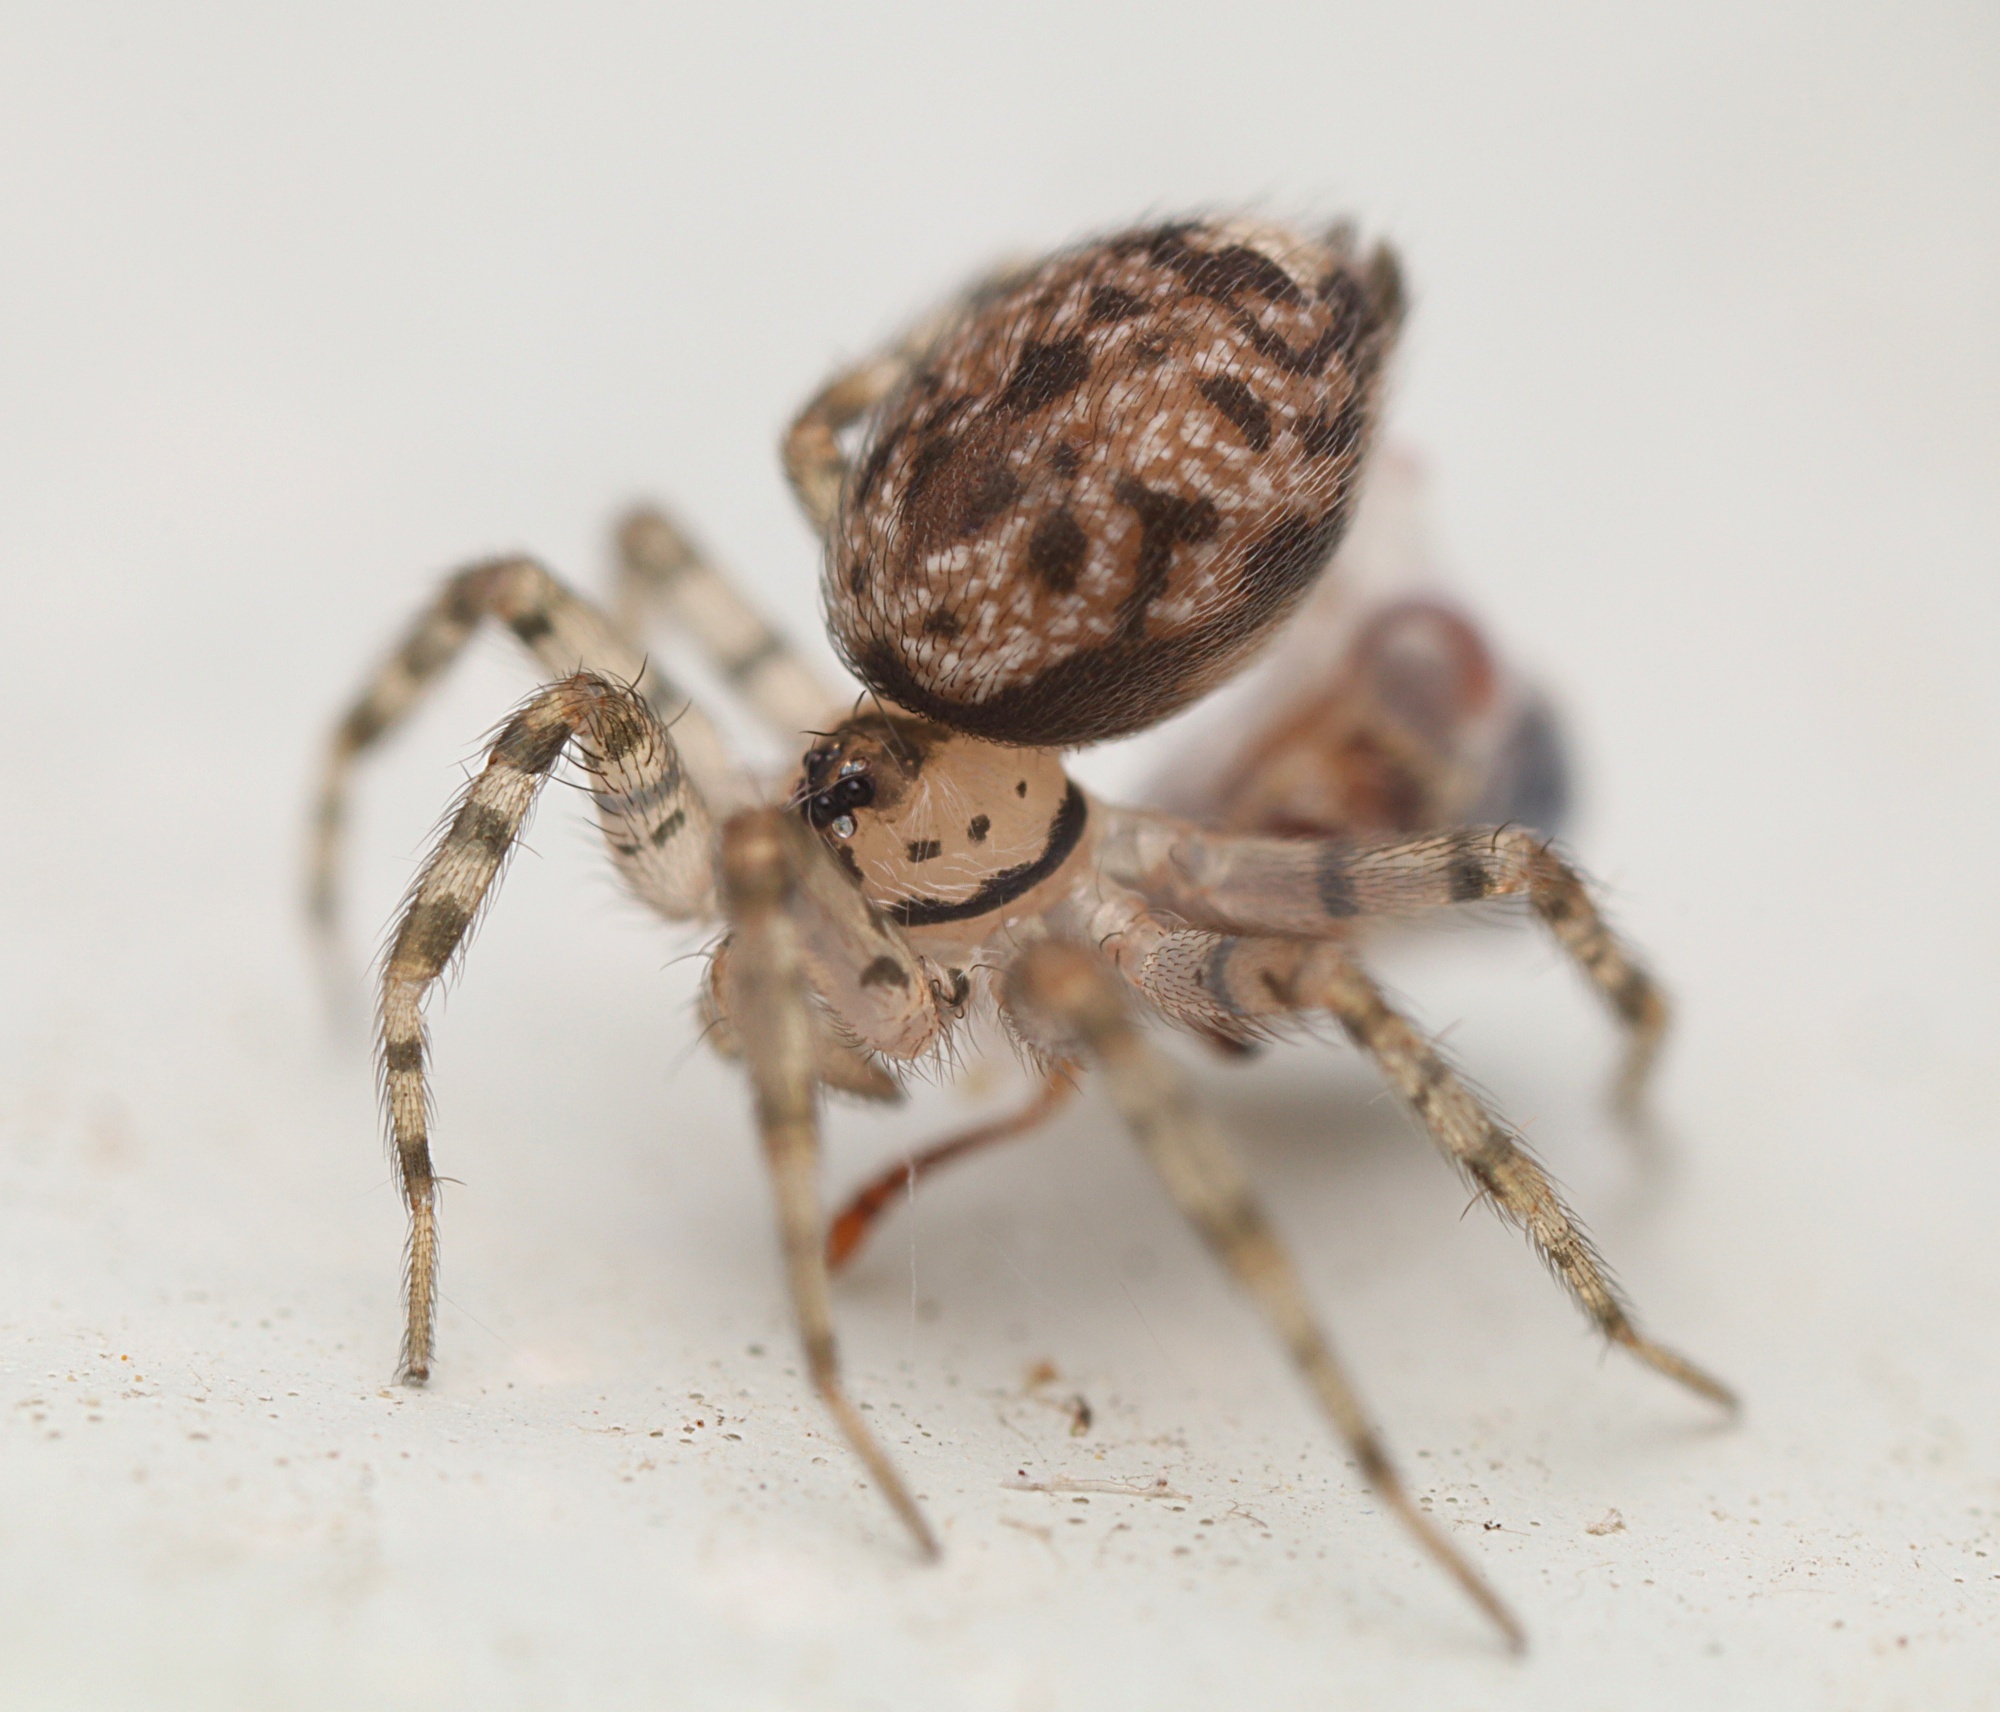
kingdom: Animalia
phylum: Arthropoda
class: Arachnida
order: Araneae
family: Oecobiidae
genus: Oecobius
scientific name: Oecobius navus
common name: Flatmesh weaver
